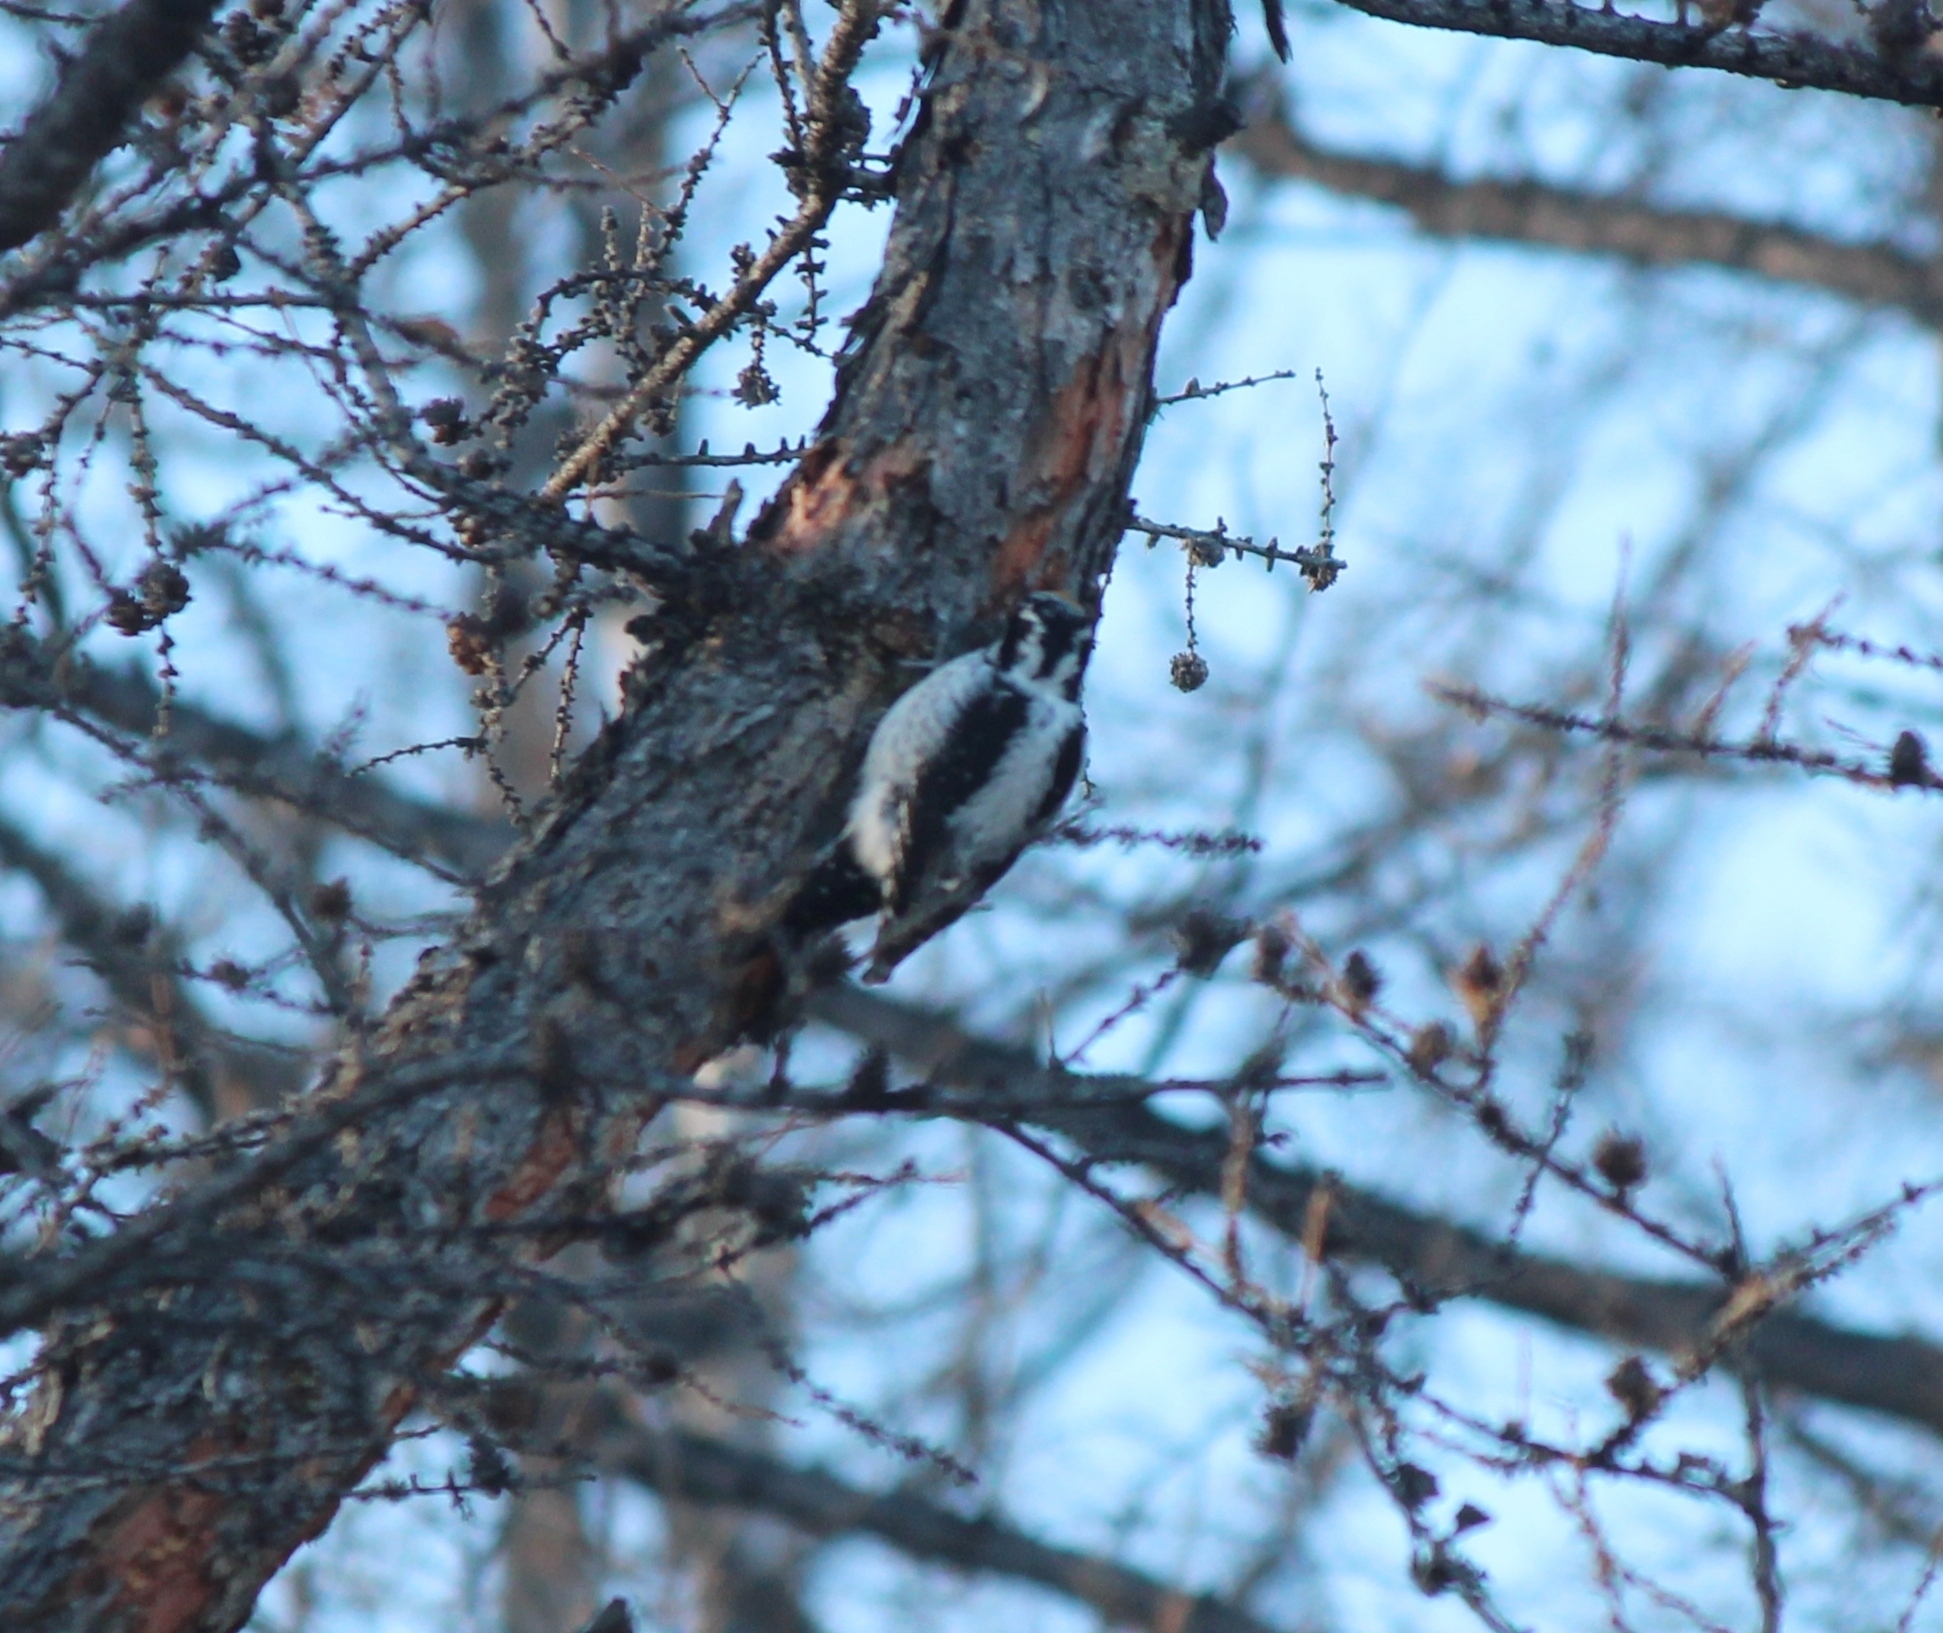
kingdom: Animalia
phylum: Chordata
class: Aves
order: Piciformes
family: Picidae
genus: Picoides
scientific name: Picoides tridactylus
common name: Eurasian three-toed woodpecker
